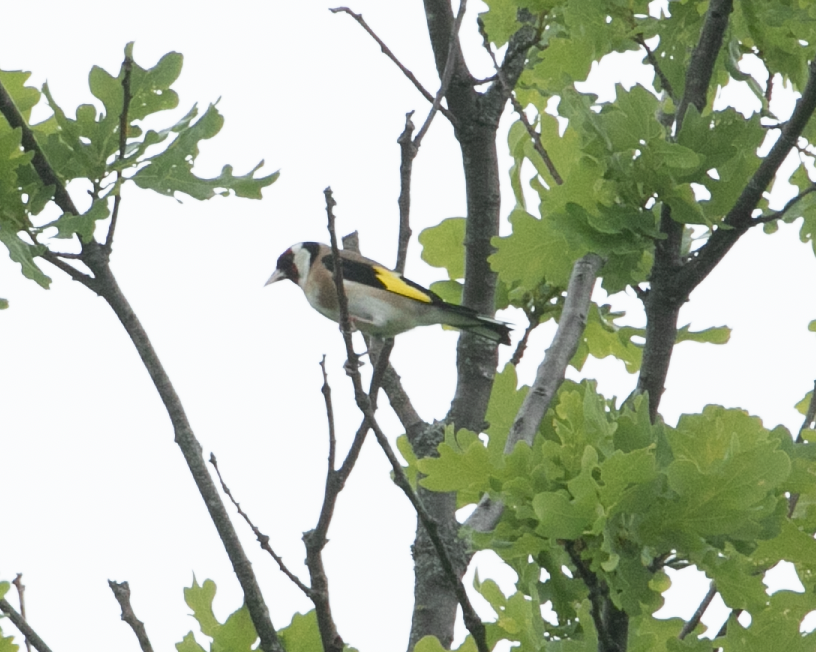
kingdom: Animalia
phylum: Chordata
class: Aves
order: Passeriformes
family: Fringillidae
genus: Carduelis
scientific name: Carduelis carduelis
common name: European goldfinch
